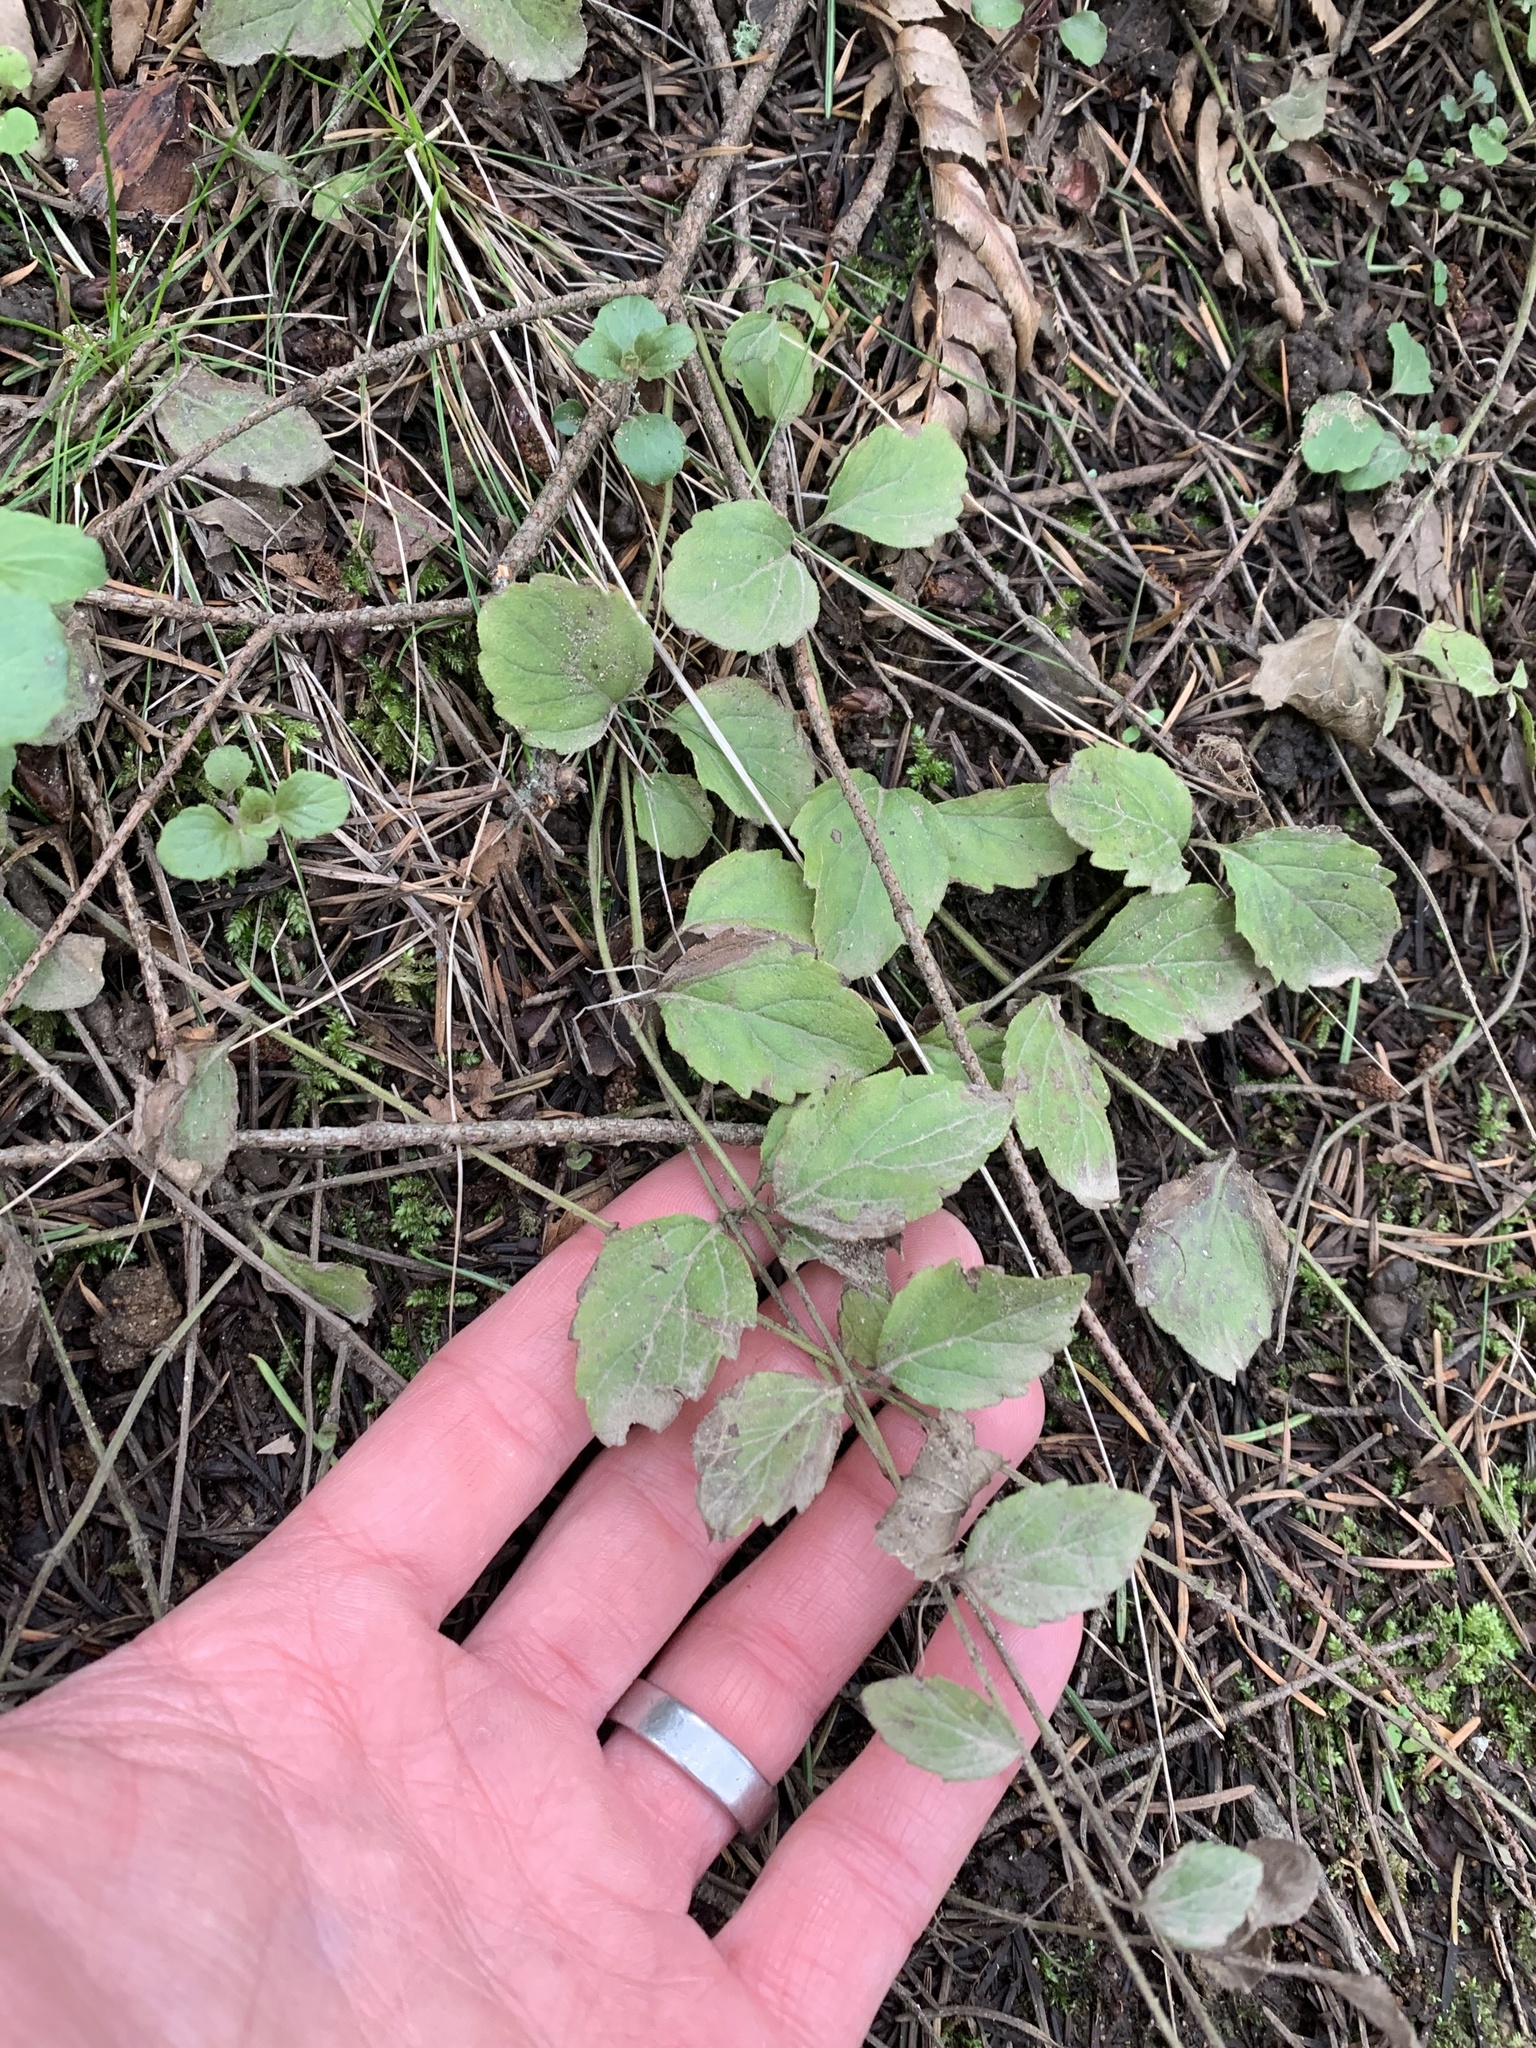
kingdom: Plantae
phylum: Tracheophyta
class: Magnoliopsida
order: Lamiales
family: Lamiaceae
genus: Micromeria
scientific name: Micromeria douglasii
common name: Yerba buena
